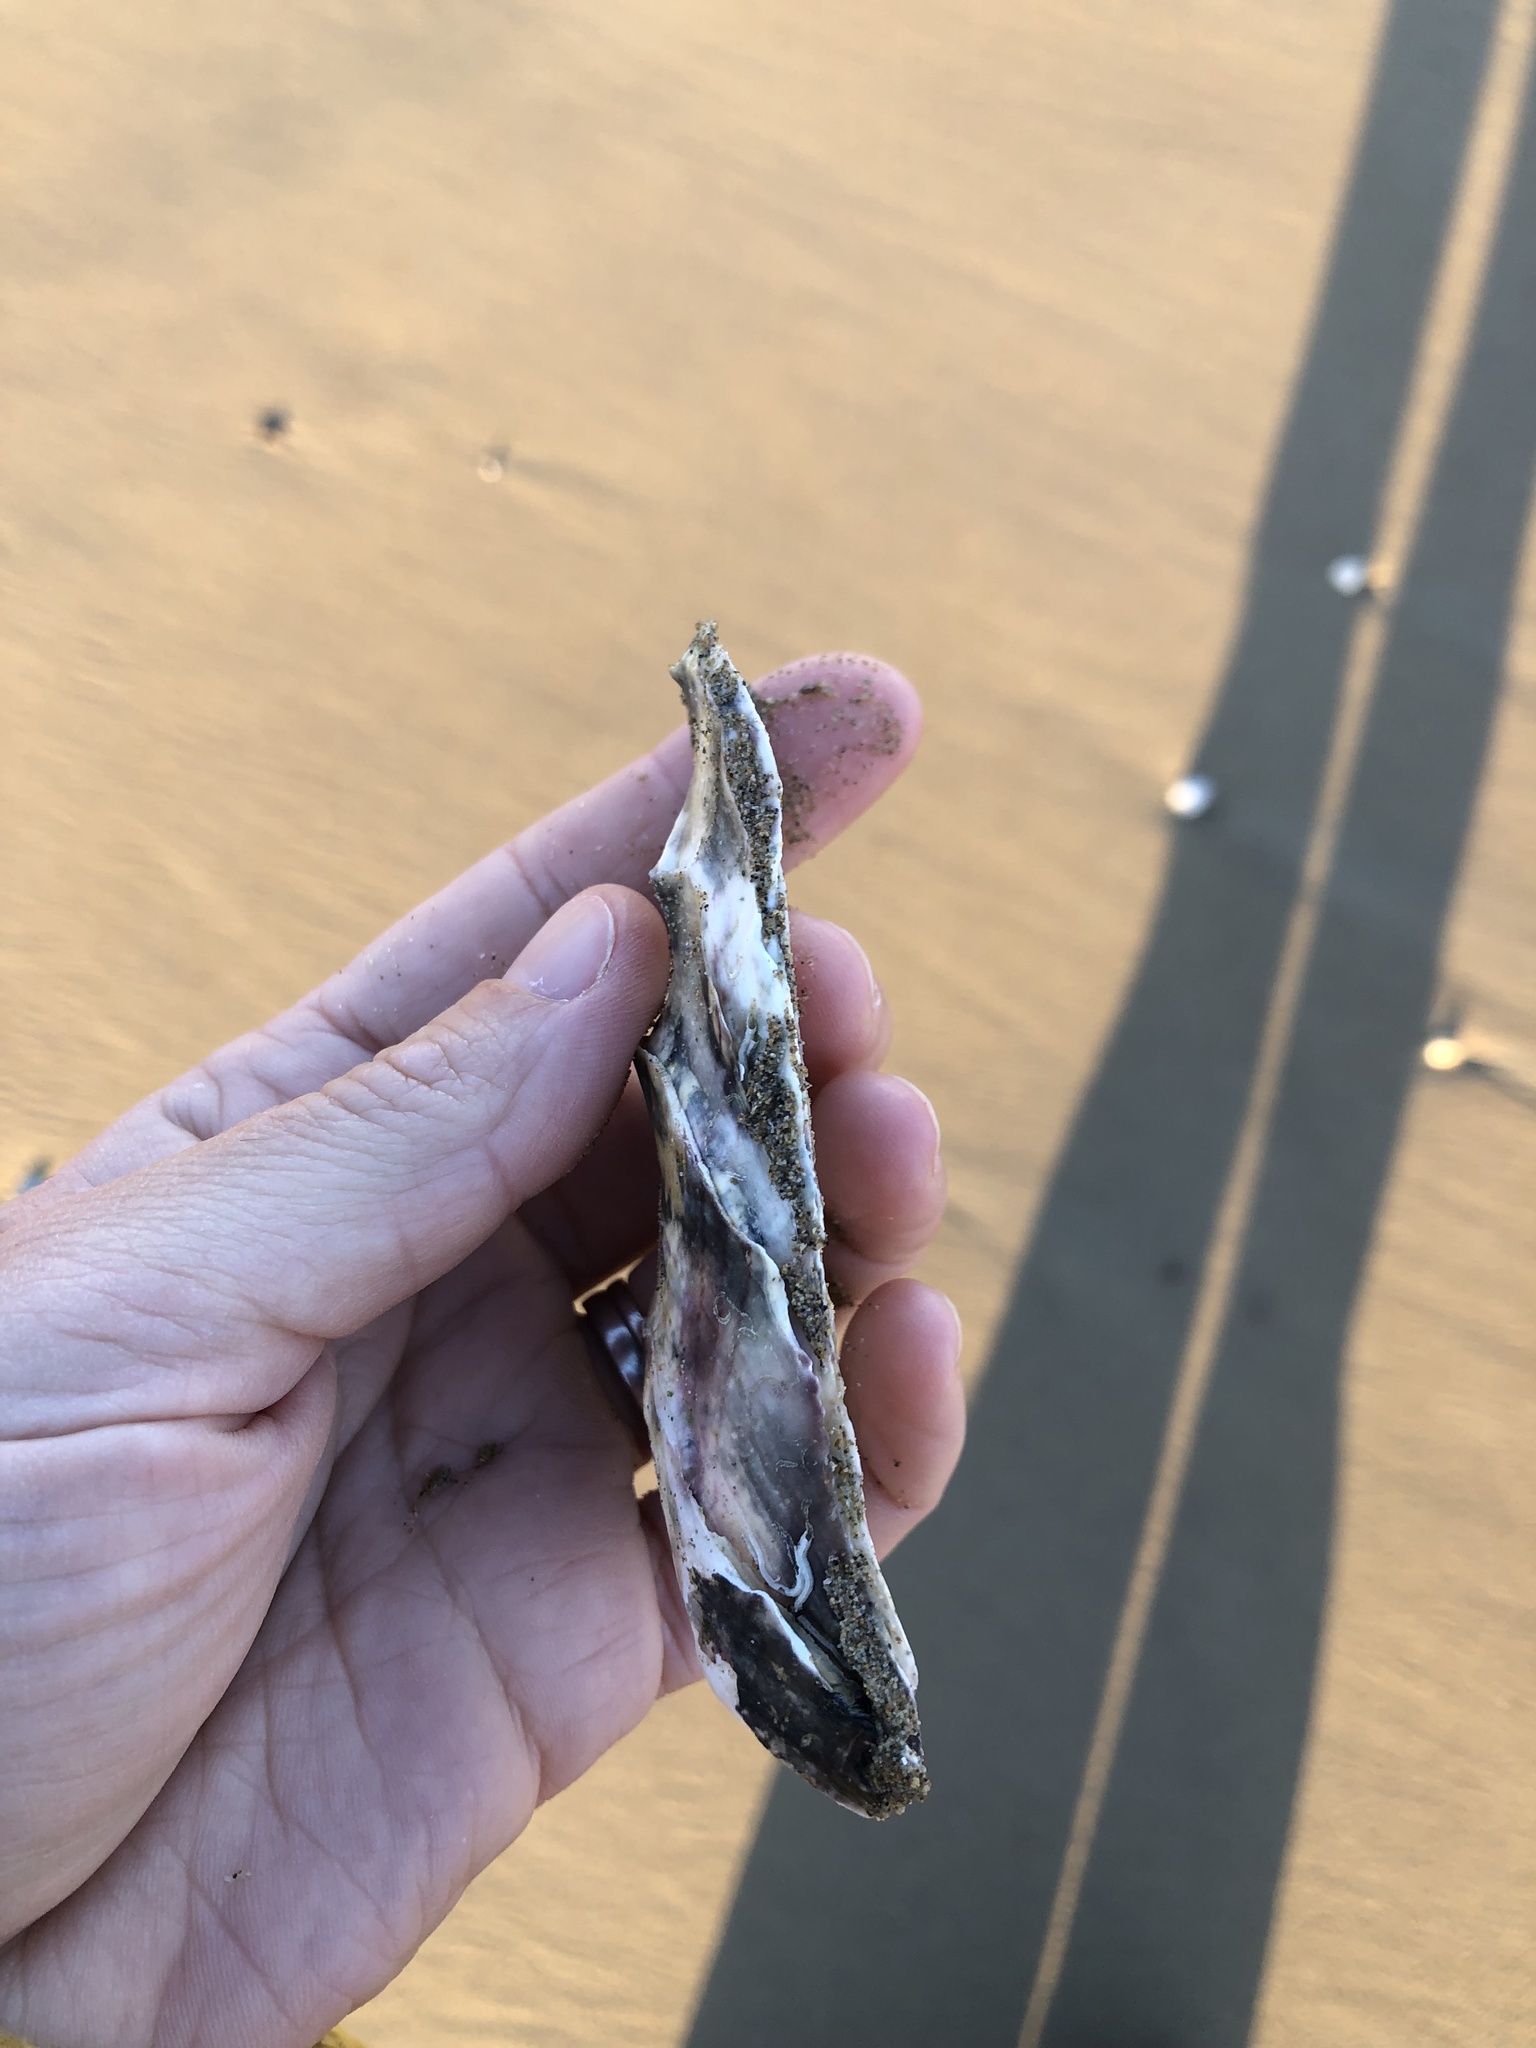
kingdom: Animalia
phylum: Mollusca
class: Bivalvia
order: Ostreida
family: Ostreidae
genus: Magallana
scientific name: Magallana gigas
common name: Pacific oyster
